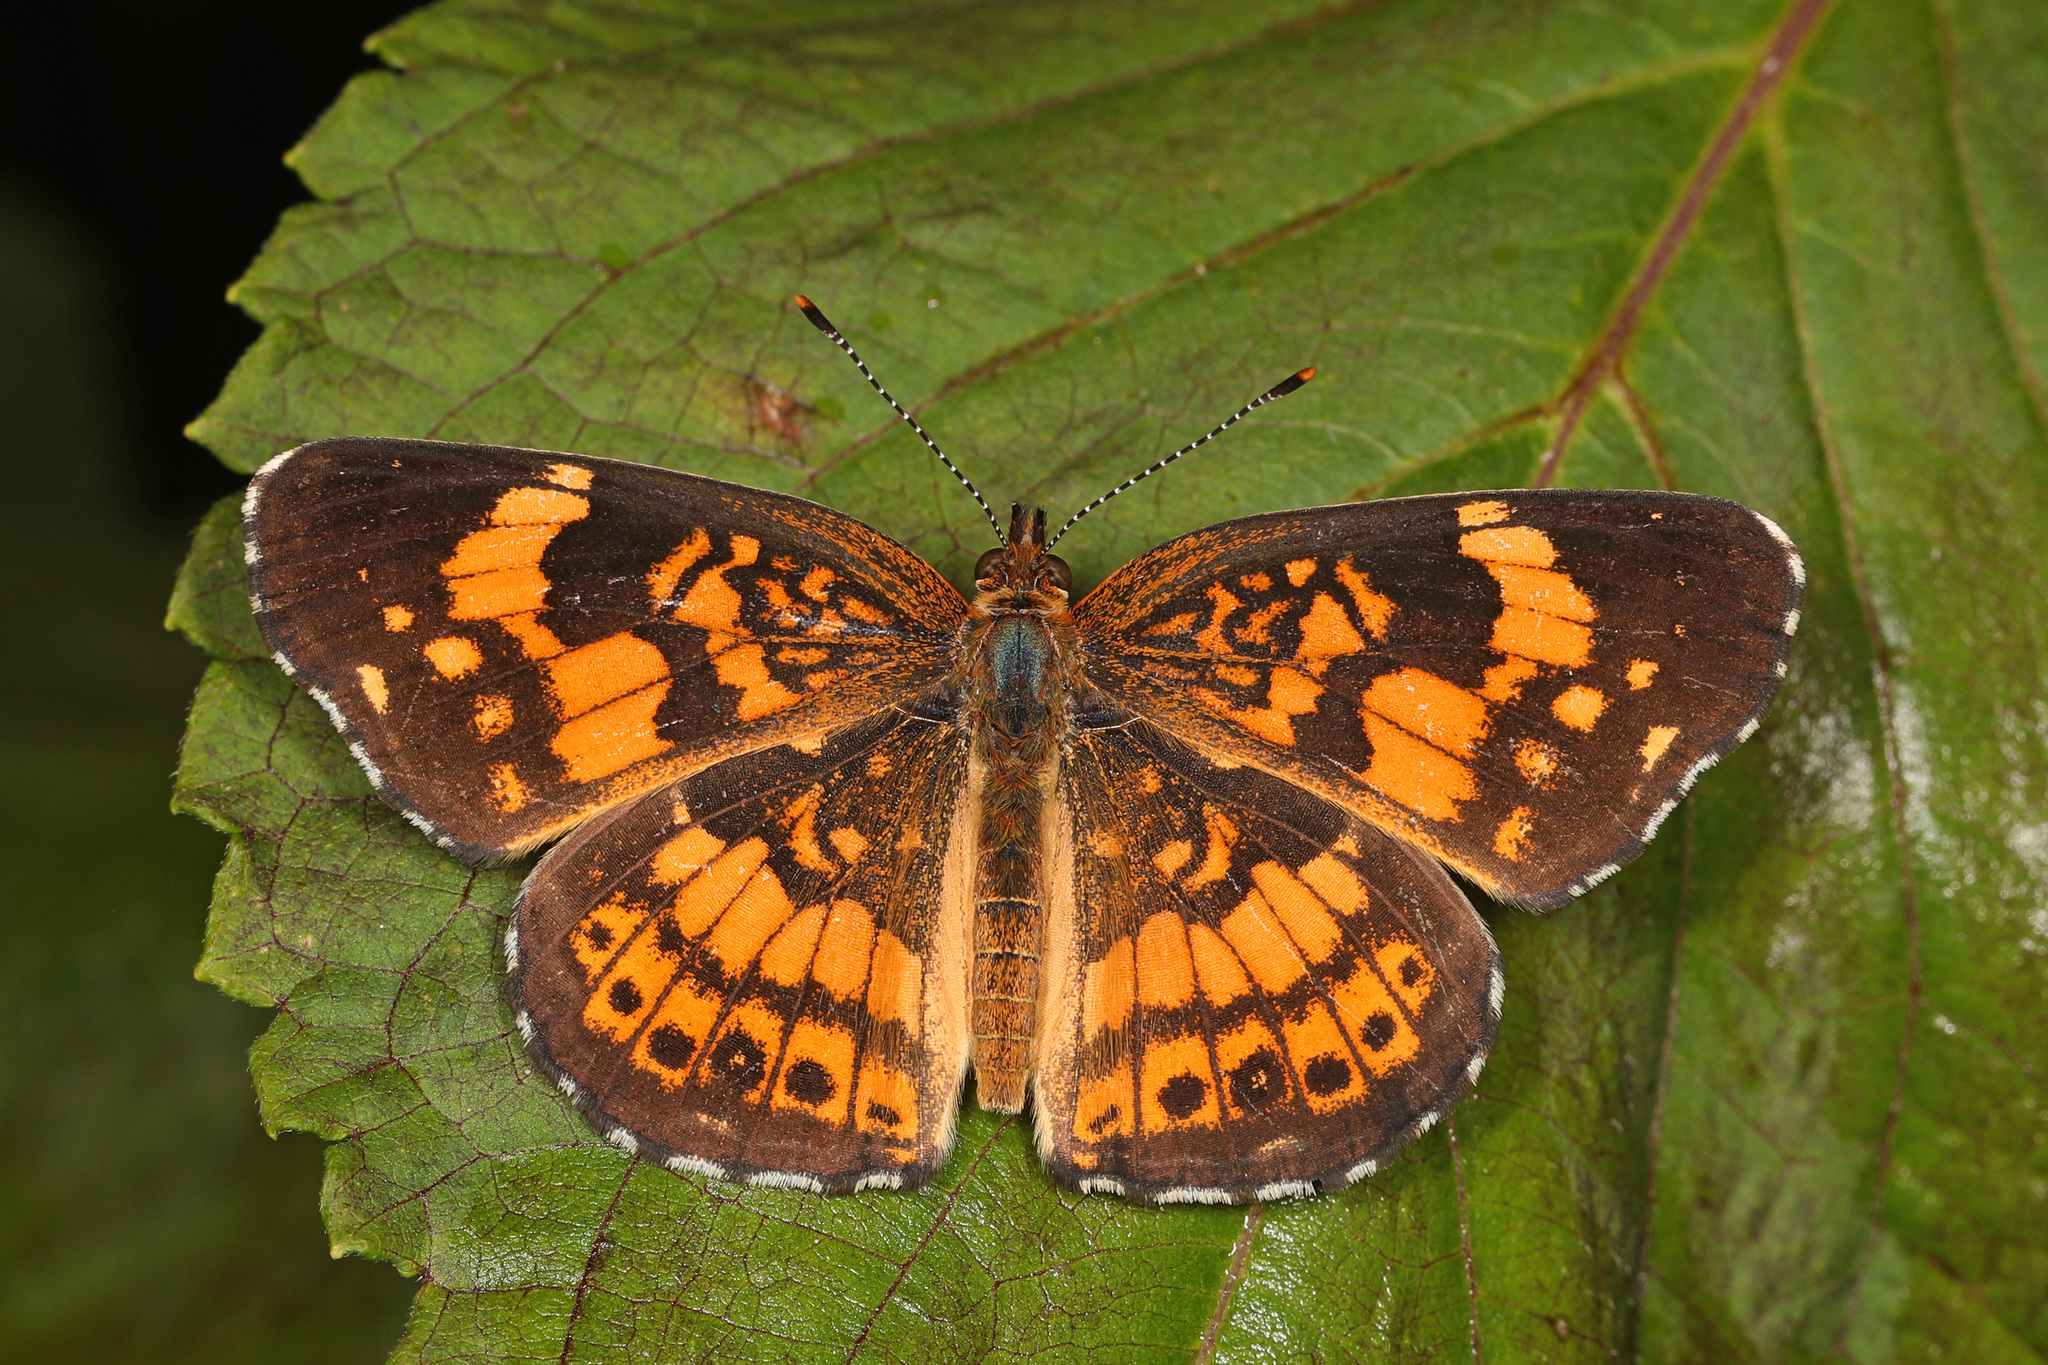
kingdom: Animalia
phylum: Arthropoda
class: Insecta
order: Lepidoptera
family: Nymphalidae
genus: Chlosyne
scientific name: Chlosyne nycteis
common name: Silvery checkerspot
